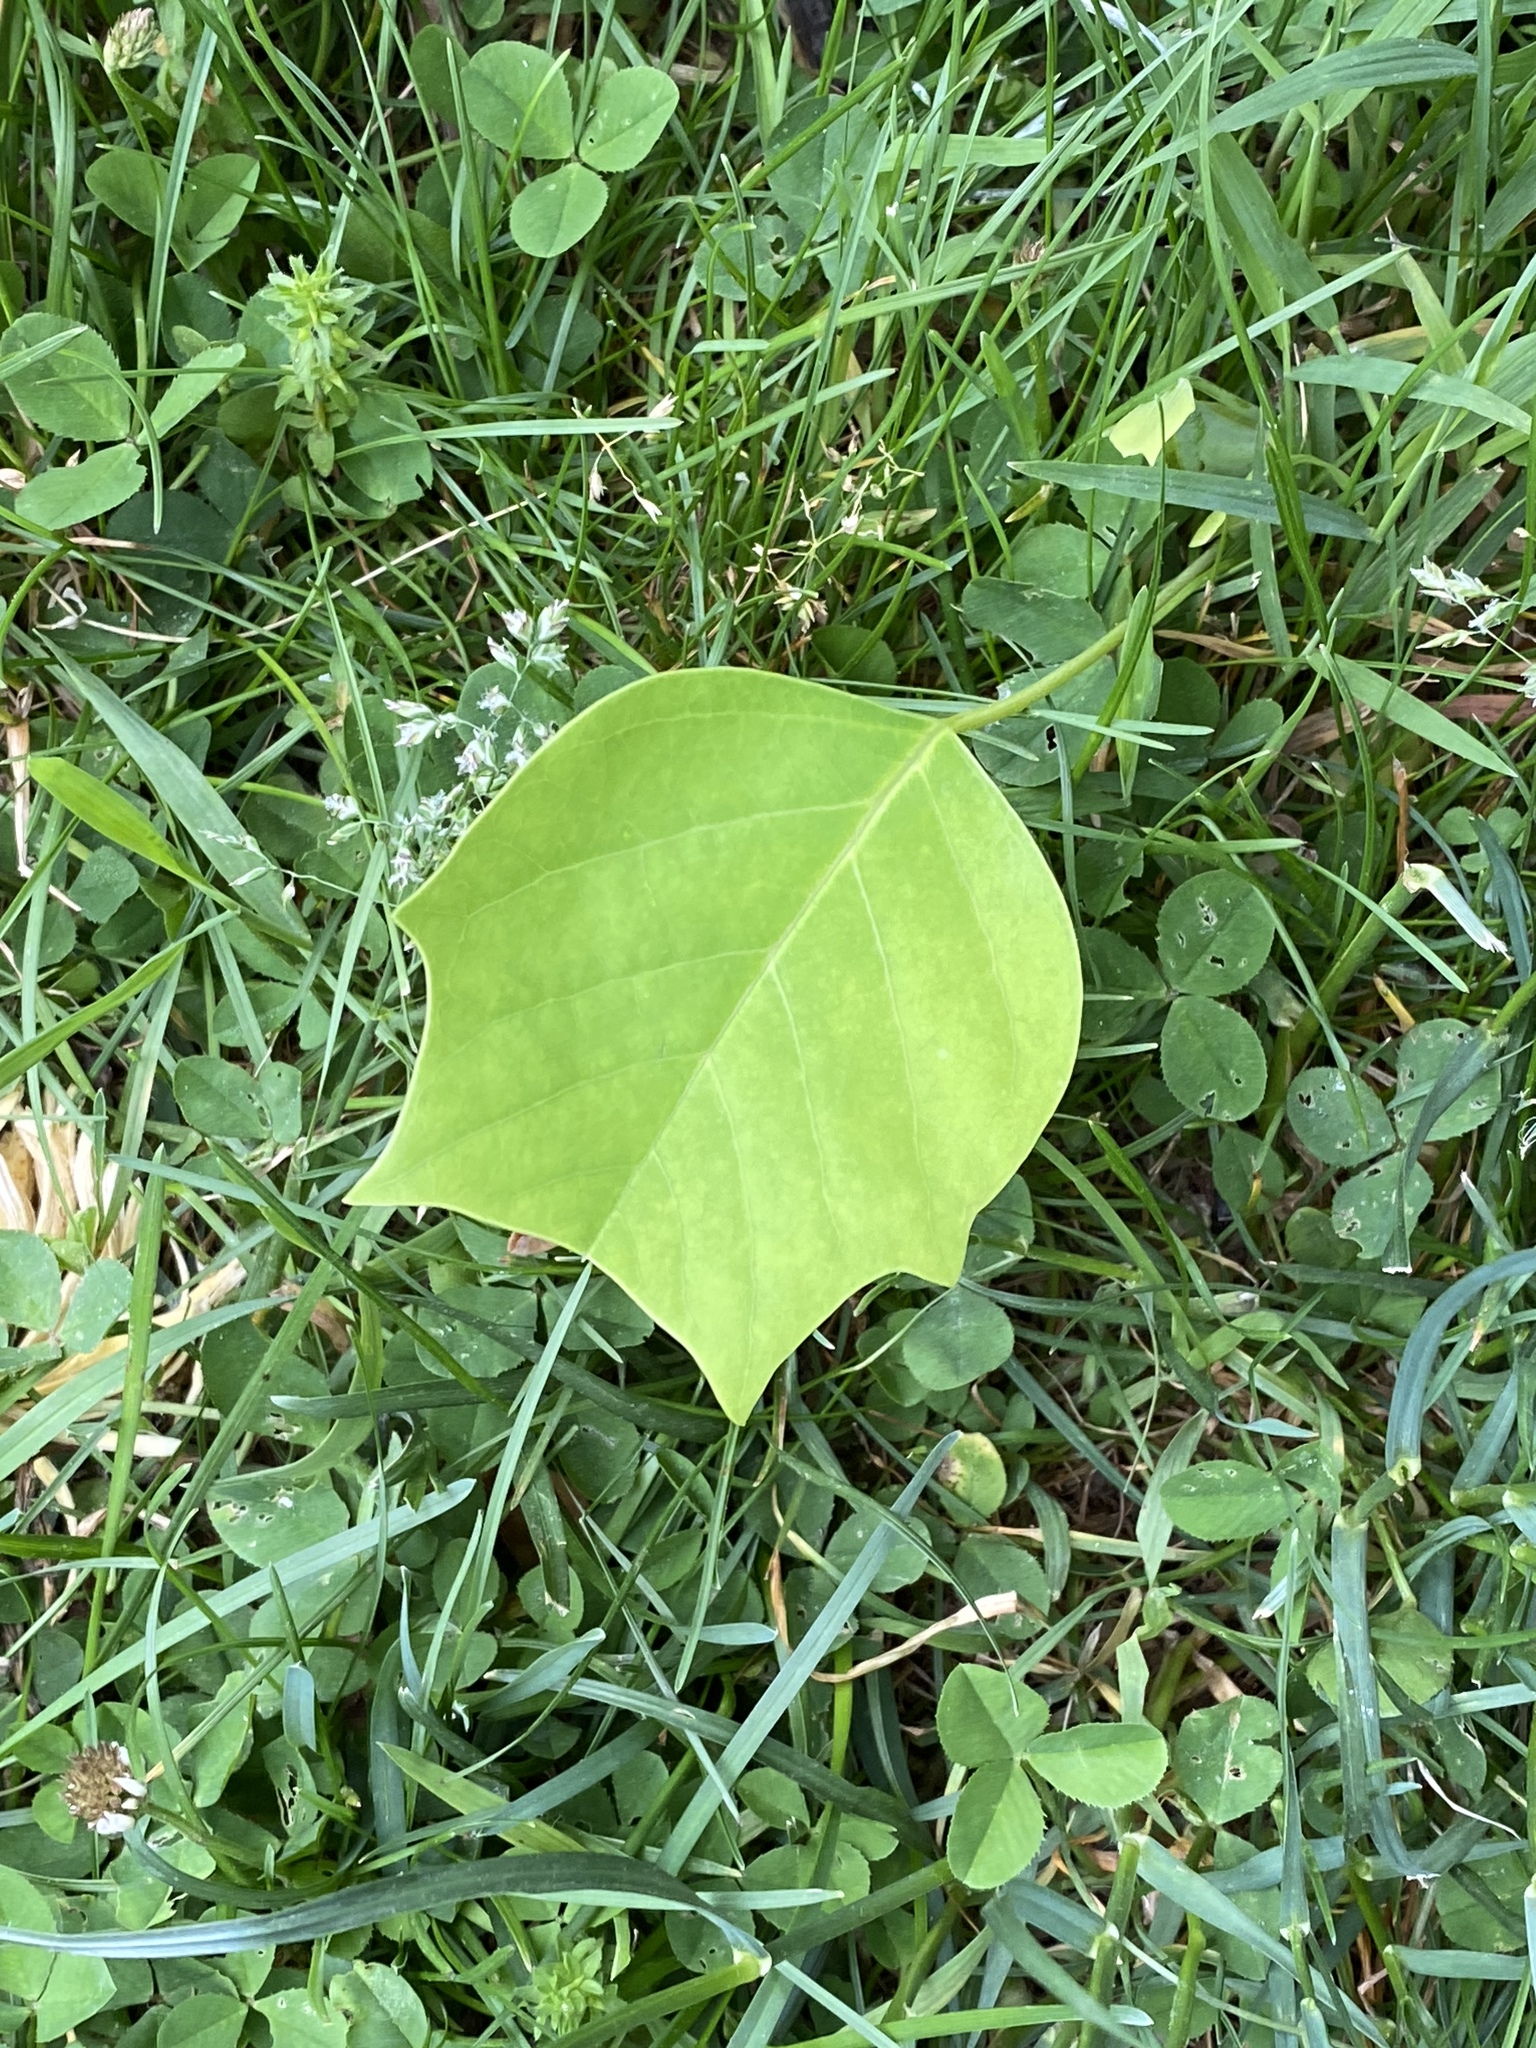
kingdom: Plantae
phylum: Tracheophyta
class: Magnoliopsida
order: Magnoliales
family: Magnoliaceae
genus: Liriodendron
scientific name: Liriodendron tulipifera
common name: Tulip tree
